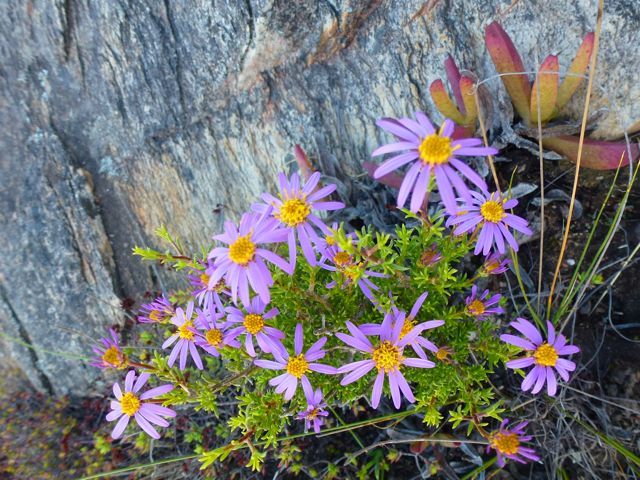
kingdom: Plantae
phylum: Tracheophyta
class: Magnoliopsida
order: Asterales
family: Asteraceae
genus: Felicia
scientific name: Felicia filifolia
